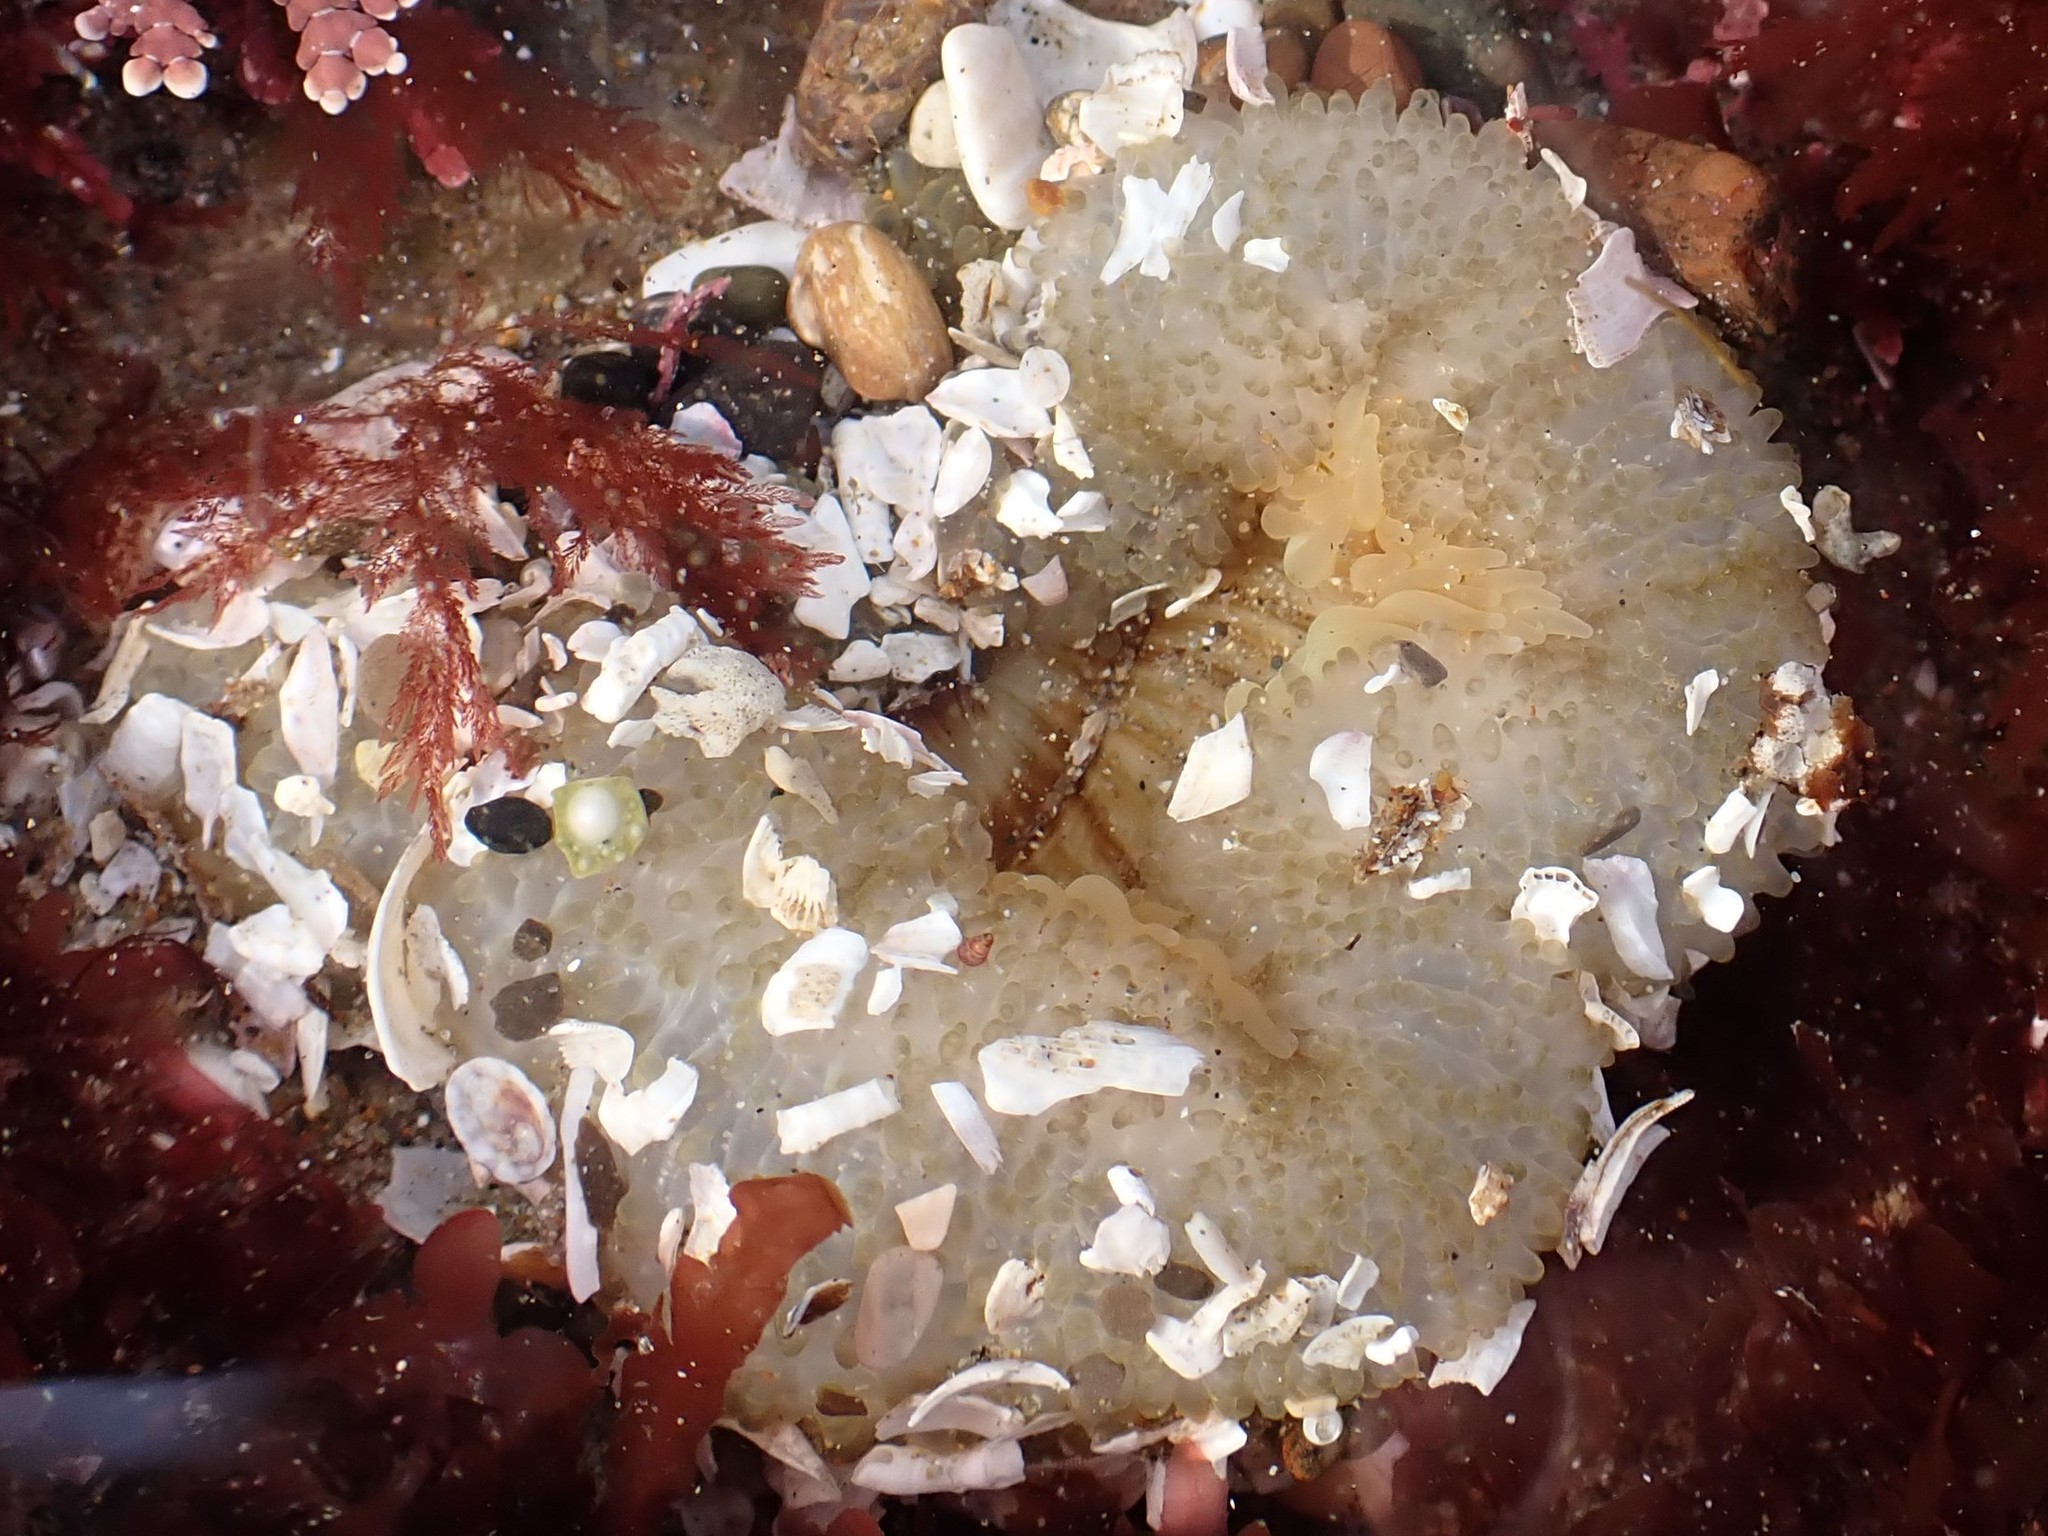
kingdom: Animalia
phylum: Cnidaria
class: Anthozoa
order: Actiniaria
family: Actiniidae
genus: Anthopleura
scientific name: Anthopleura sola
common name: Sun anemone
